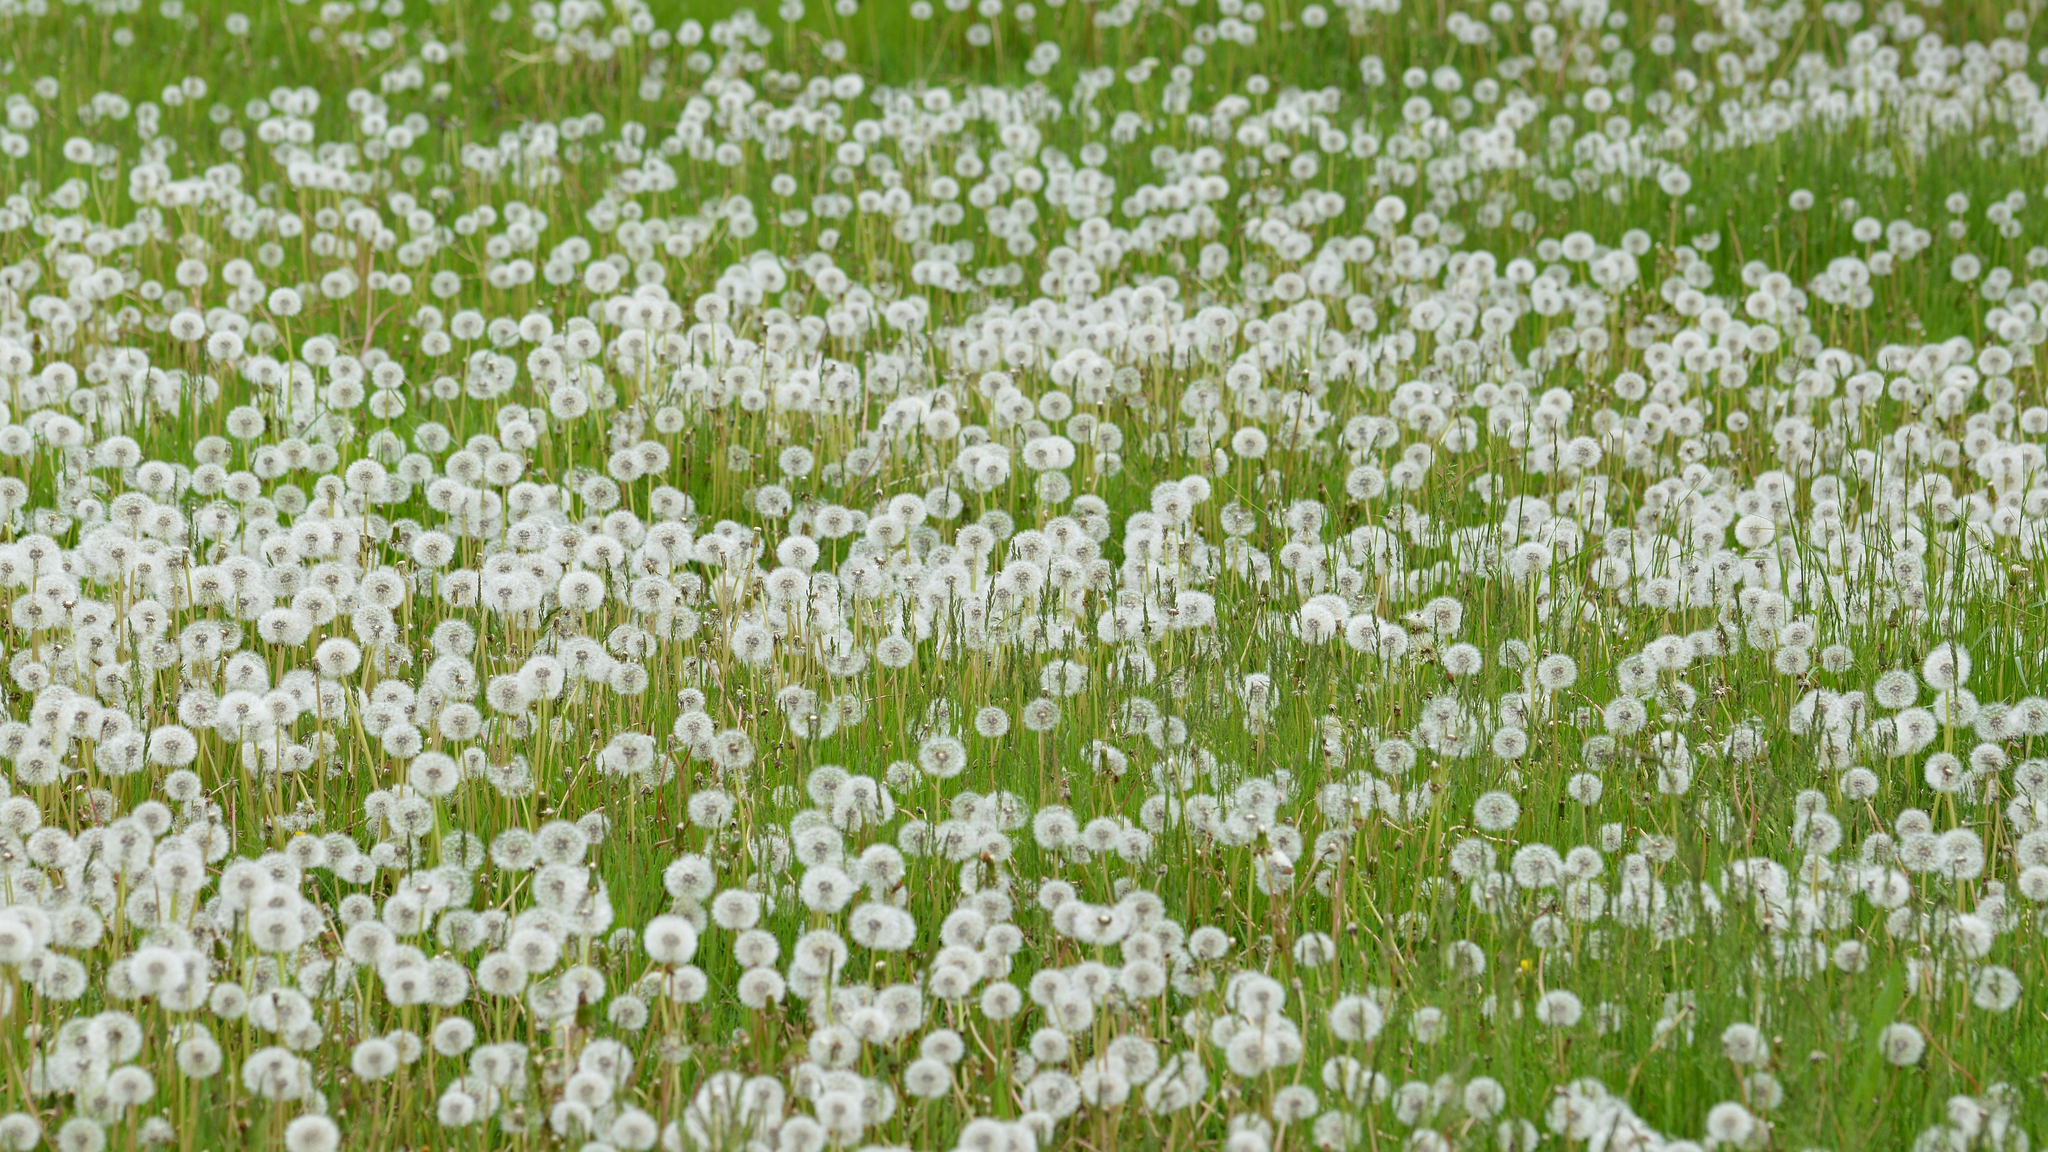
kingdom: Plantae
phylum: Tracheophyta
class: Magnoliopsida
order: Asterales
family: Asteraceae
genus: Taraxacum
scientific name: Taraxacum erythrospermum
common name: Rock dandelion
